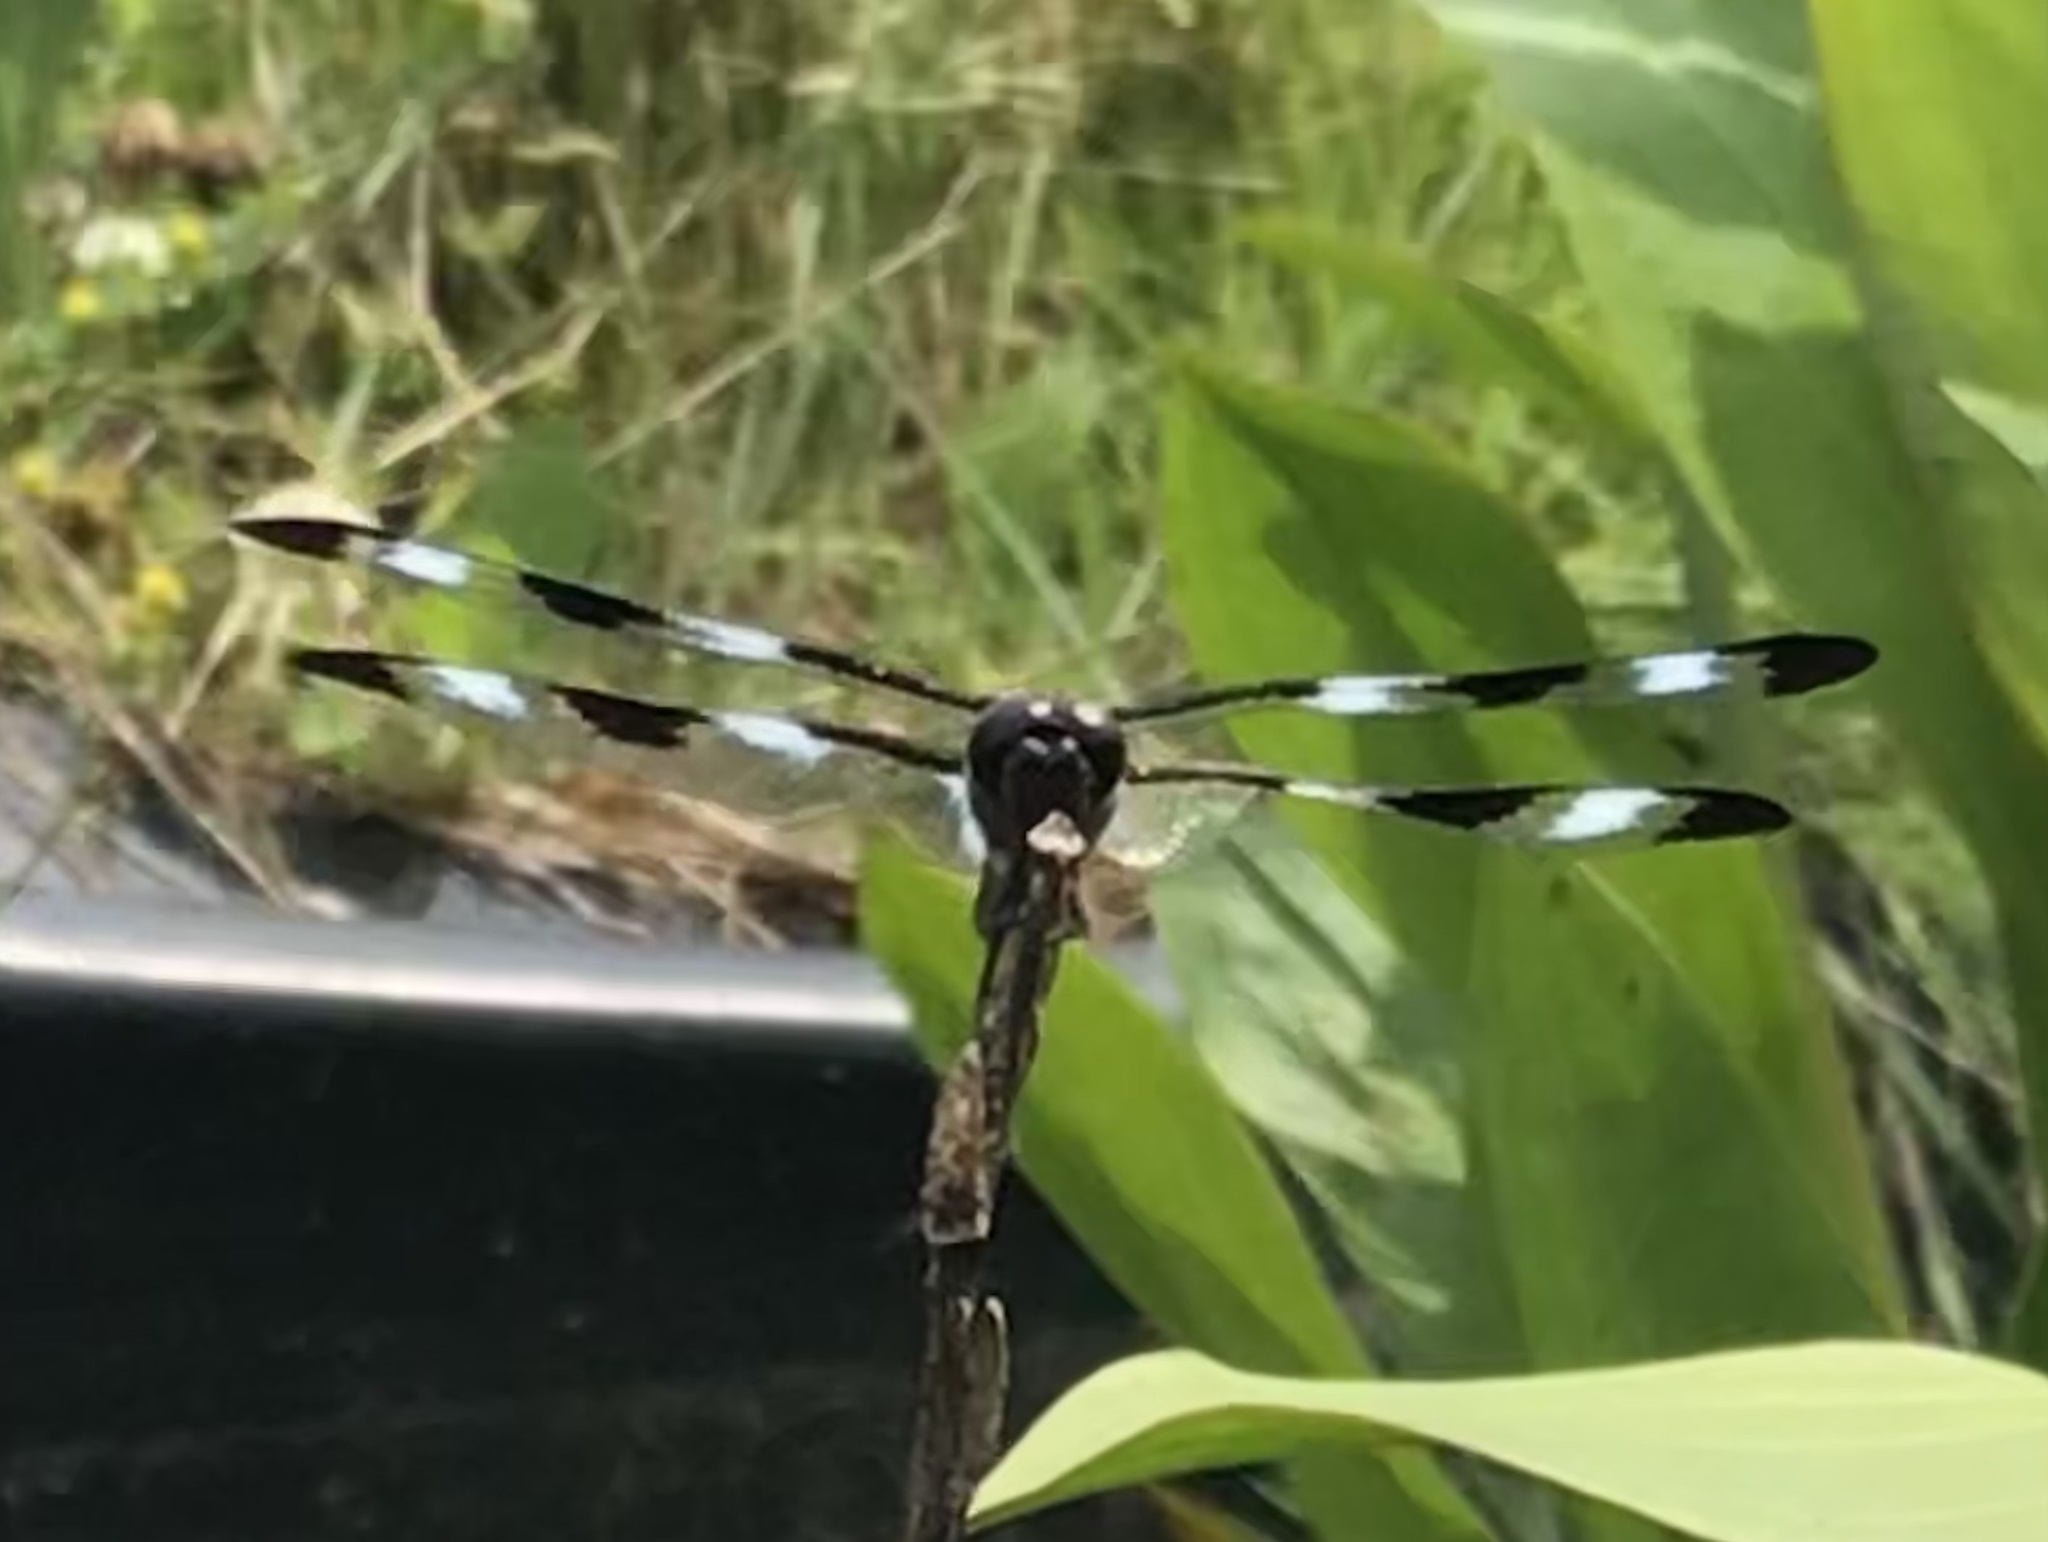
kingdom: Animalia
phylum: Arthropoda
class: Insecta
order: Odonata
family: Libellulidae
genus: Libellula
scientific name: Libellula pulchella
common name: Twelve-spotted skimmer
